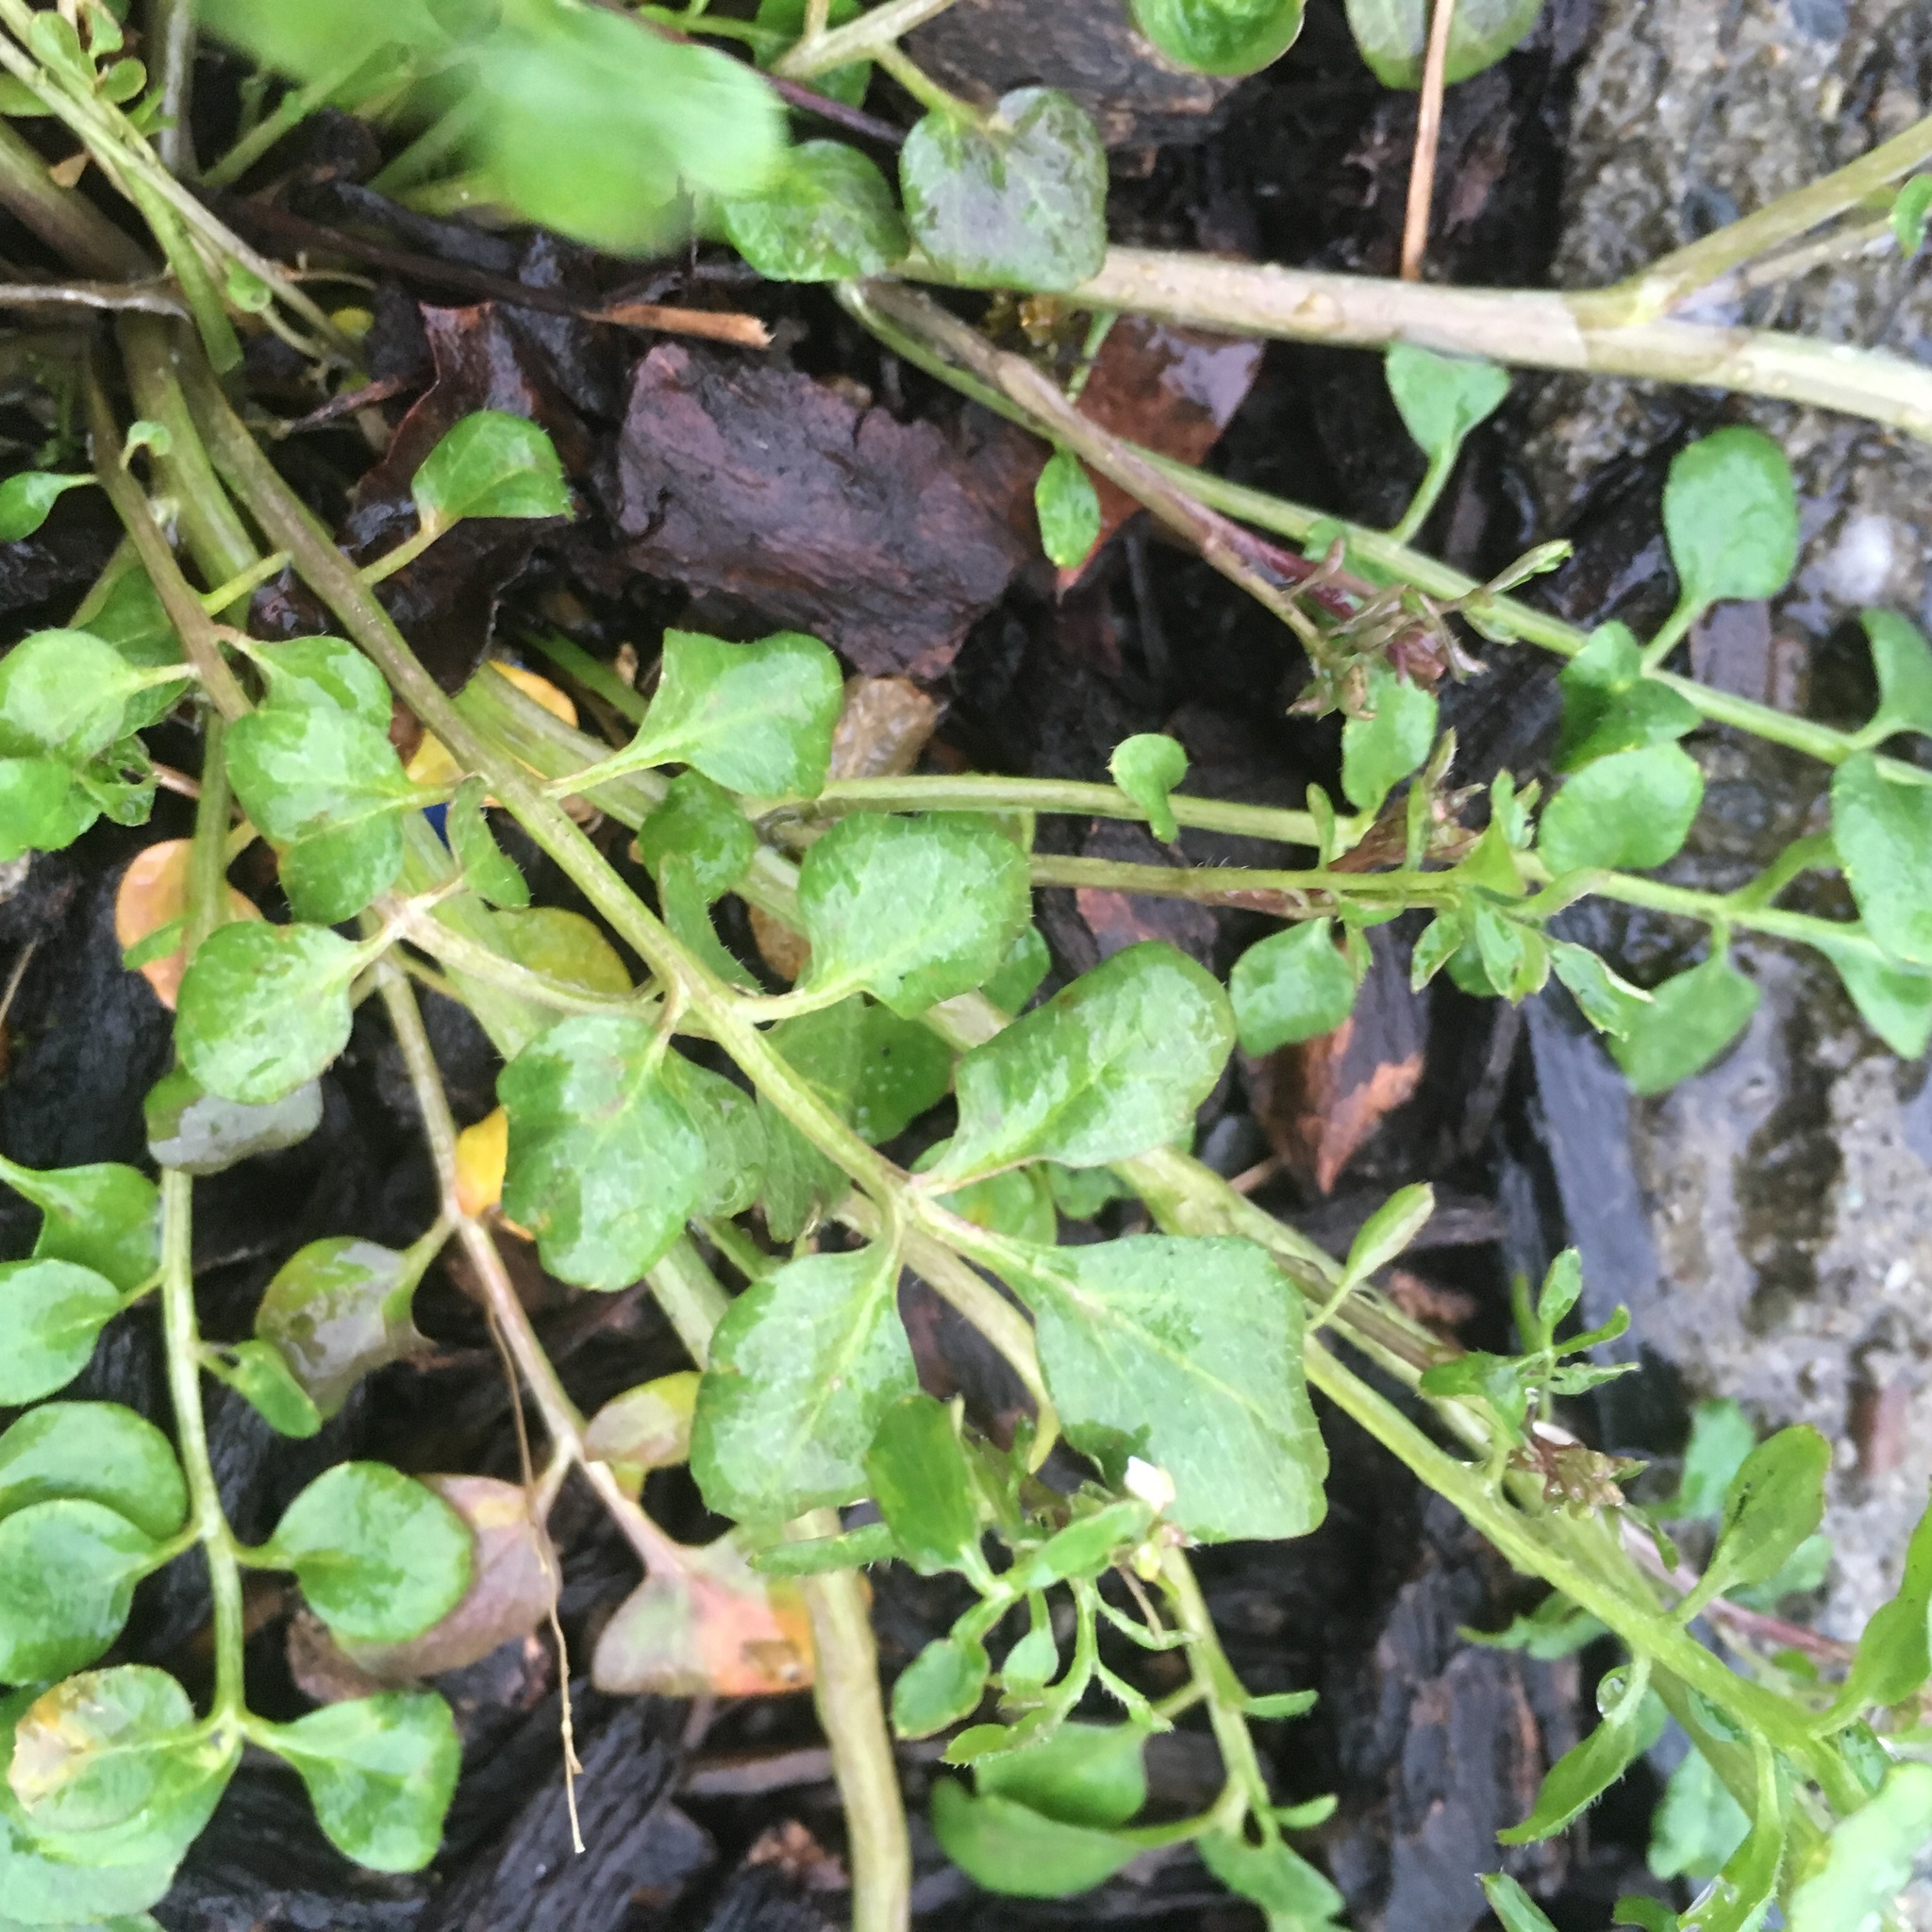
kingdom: Plantae
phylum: Tracheophyta
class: Magnoliopsida
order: Brassicales
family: Brassicaceae
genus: Cardamine
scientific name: Cardamine hirsuta
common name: Hairy bittercress
